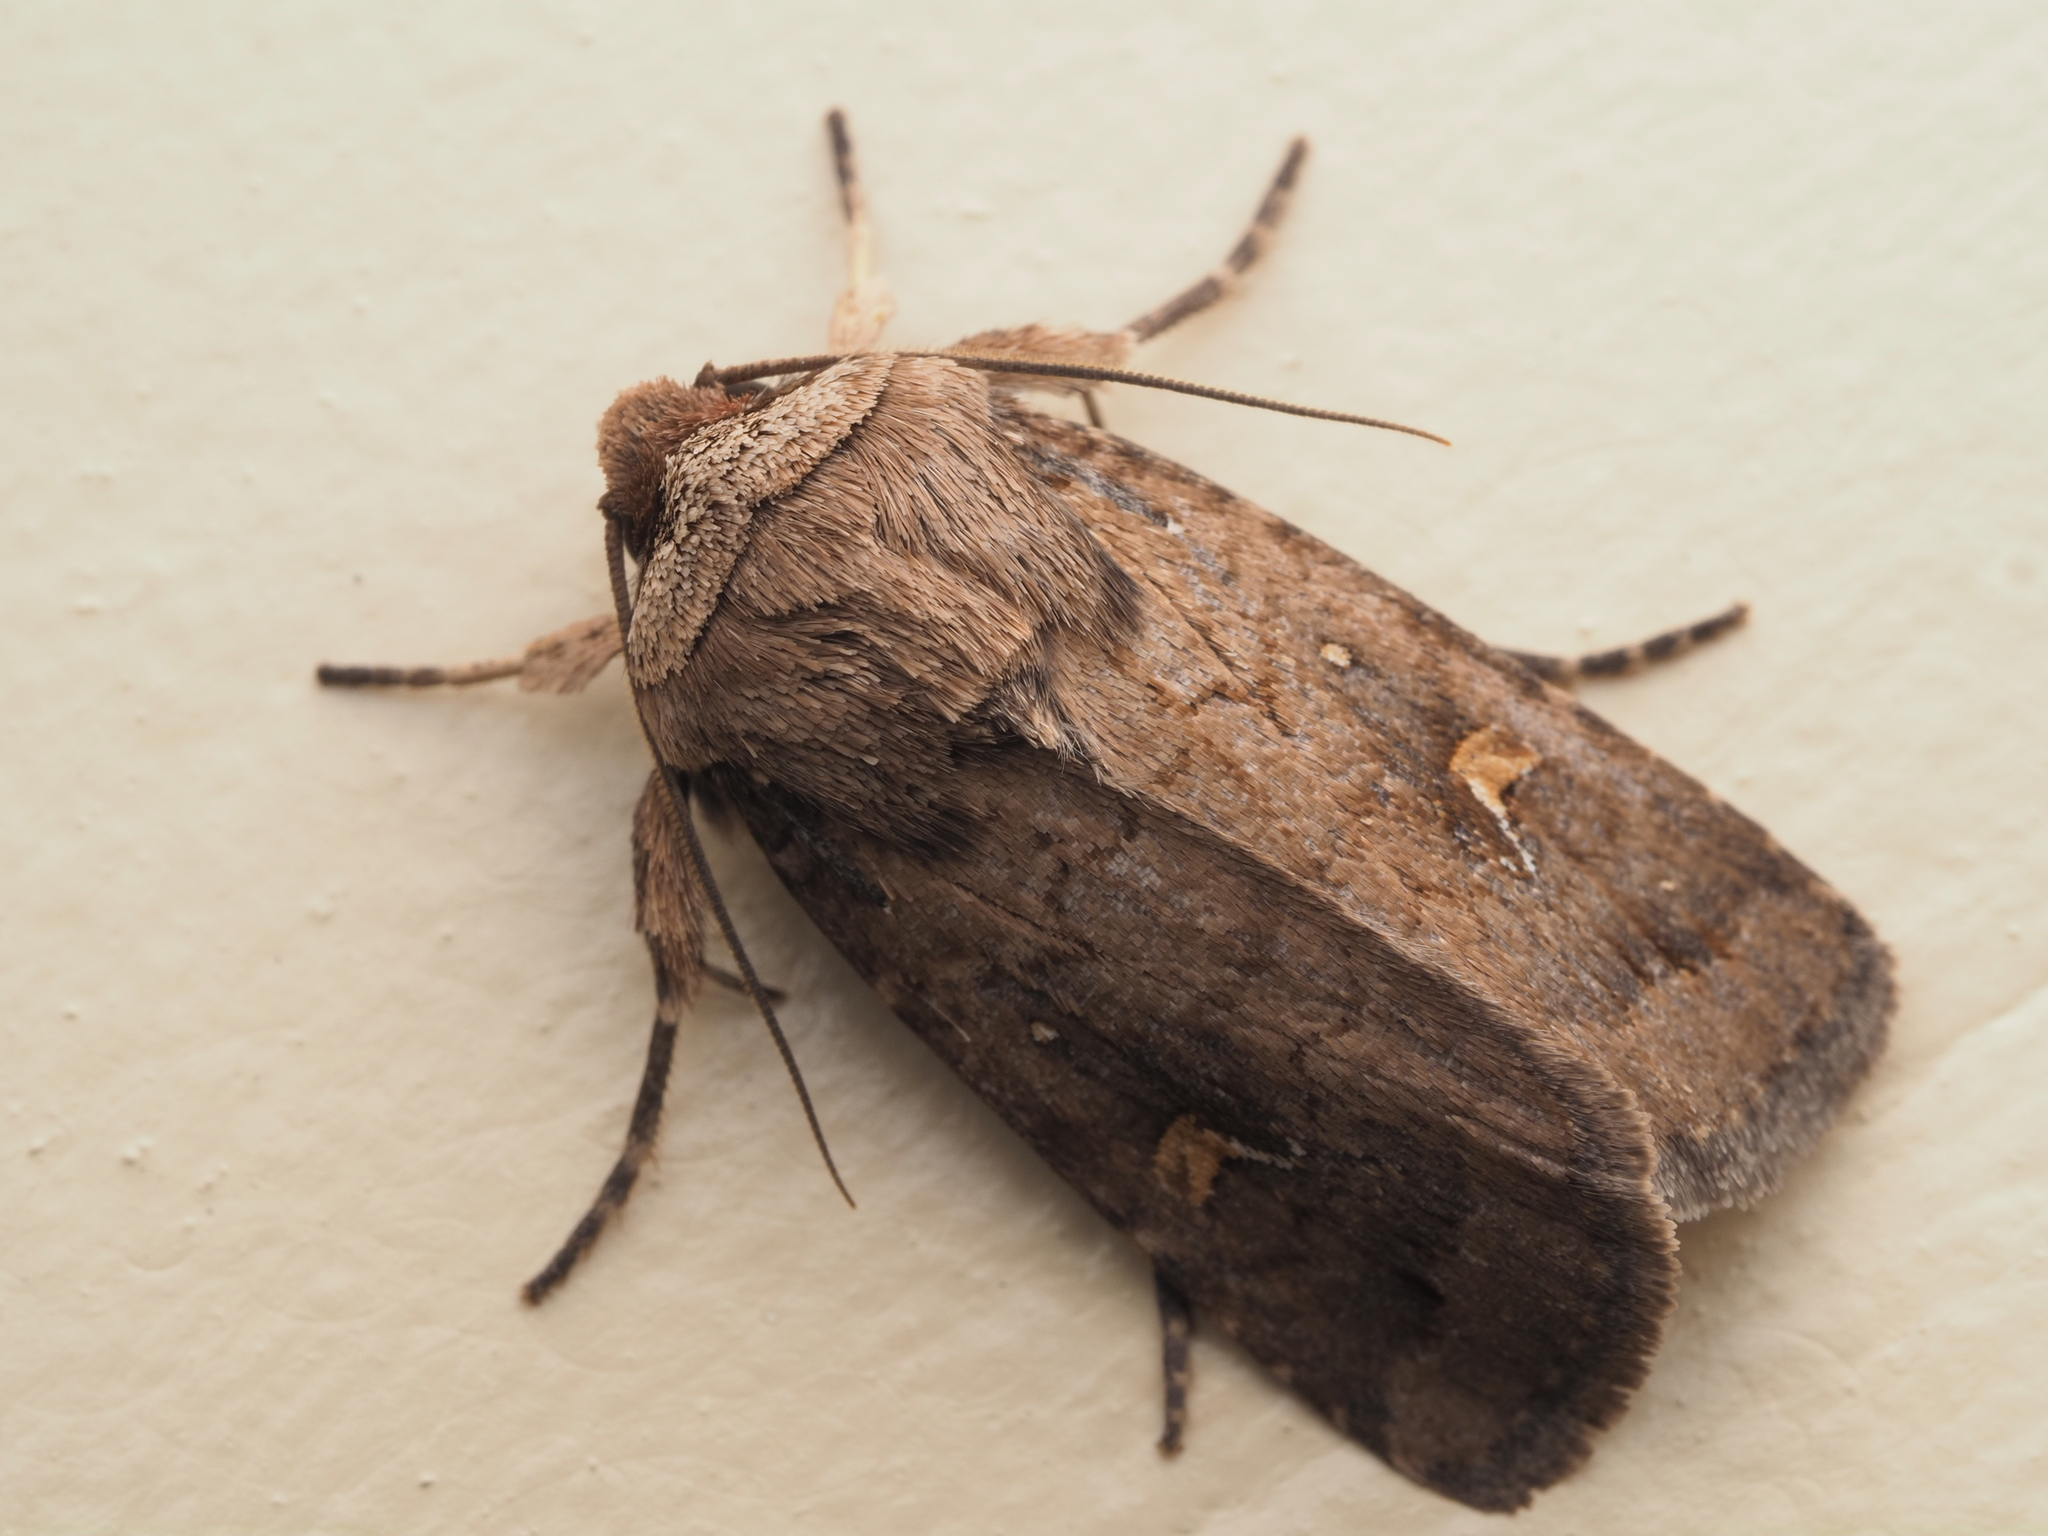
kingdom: Animalia
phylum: Arthropoda
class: Insecta
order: Lepidoptera
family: Noctuidae
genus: Proteuxoa
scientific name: Proteuxoa tetronycha
